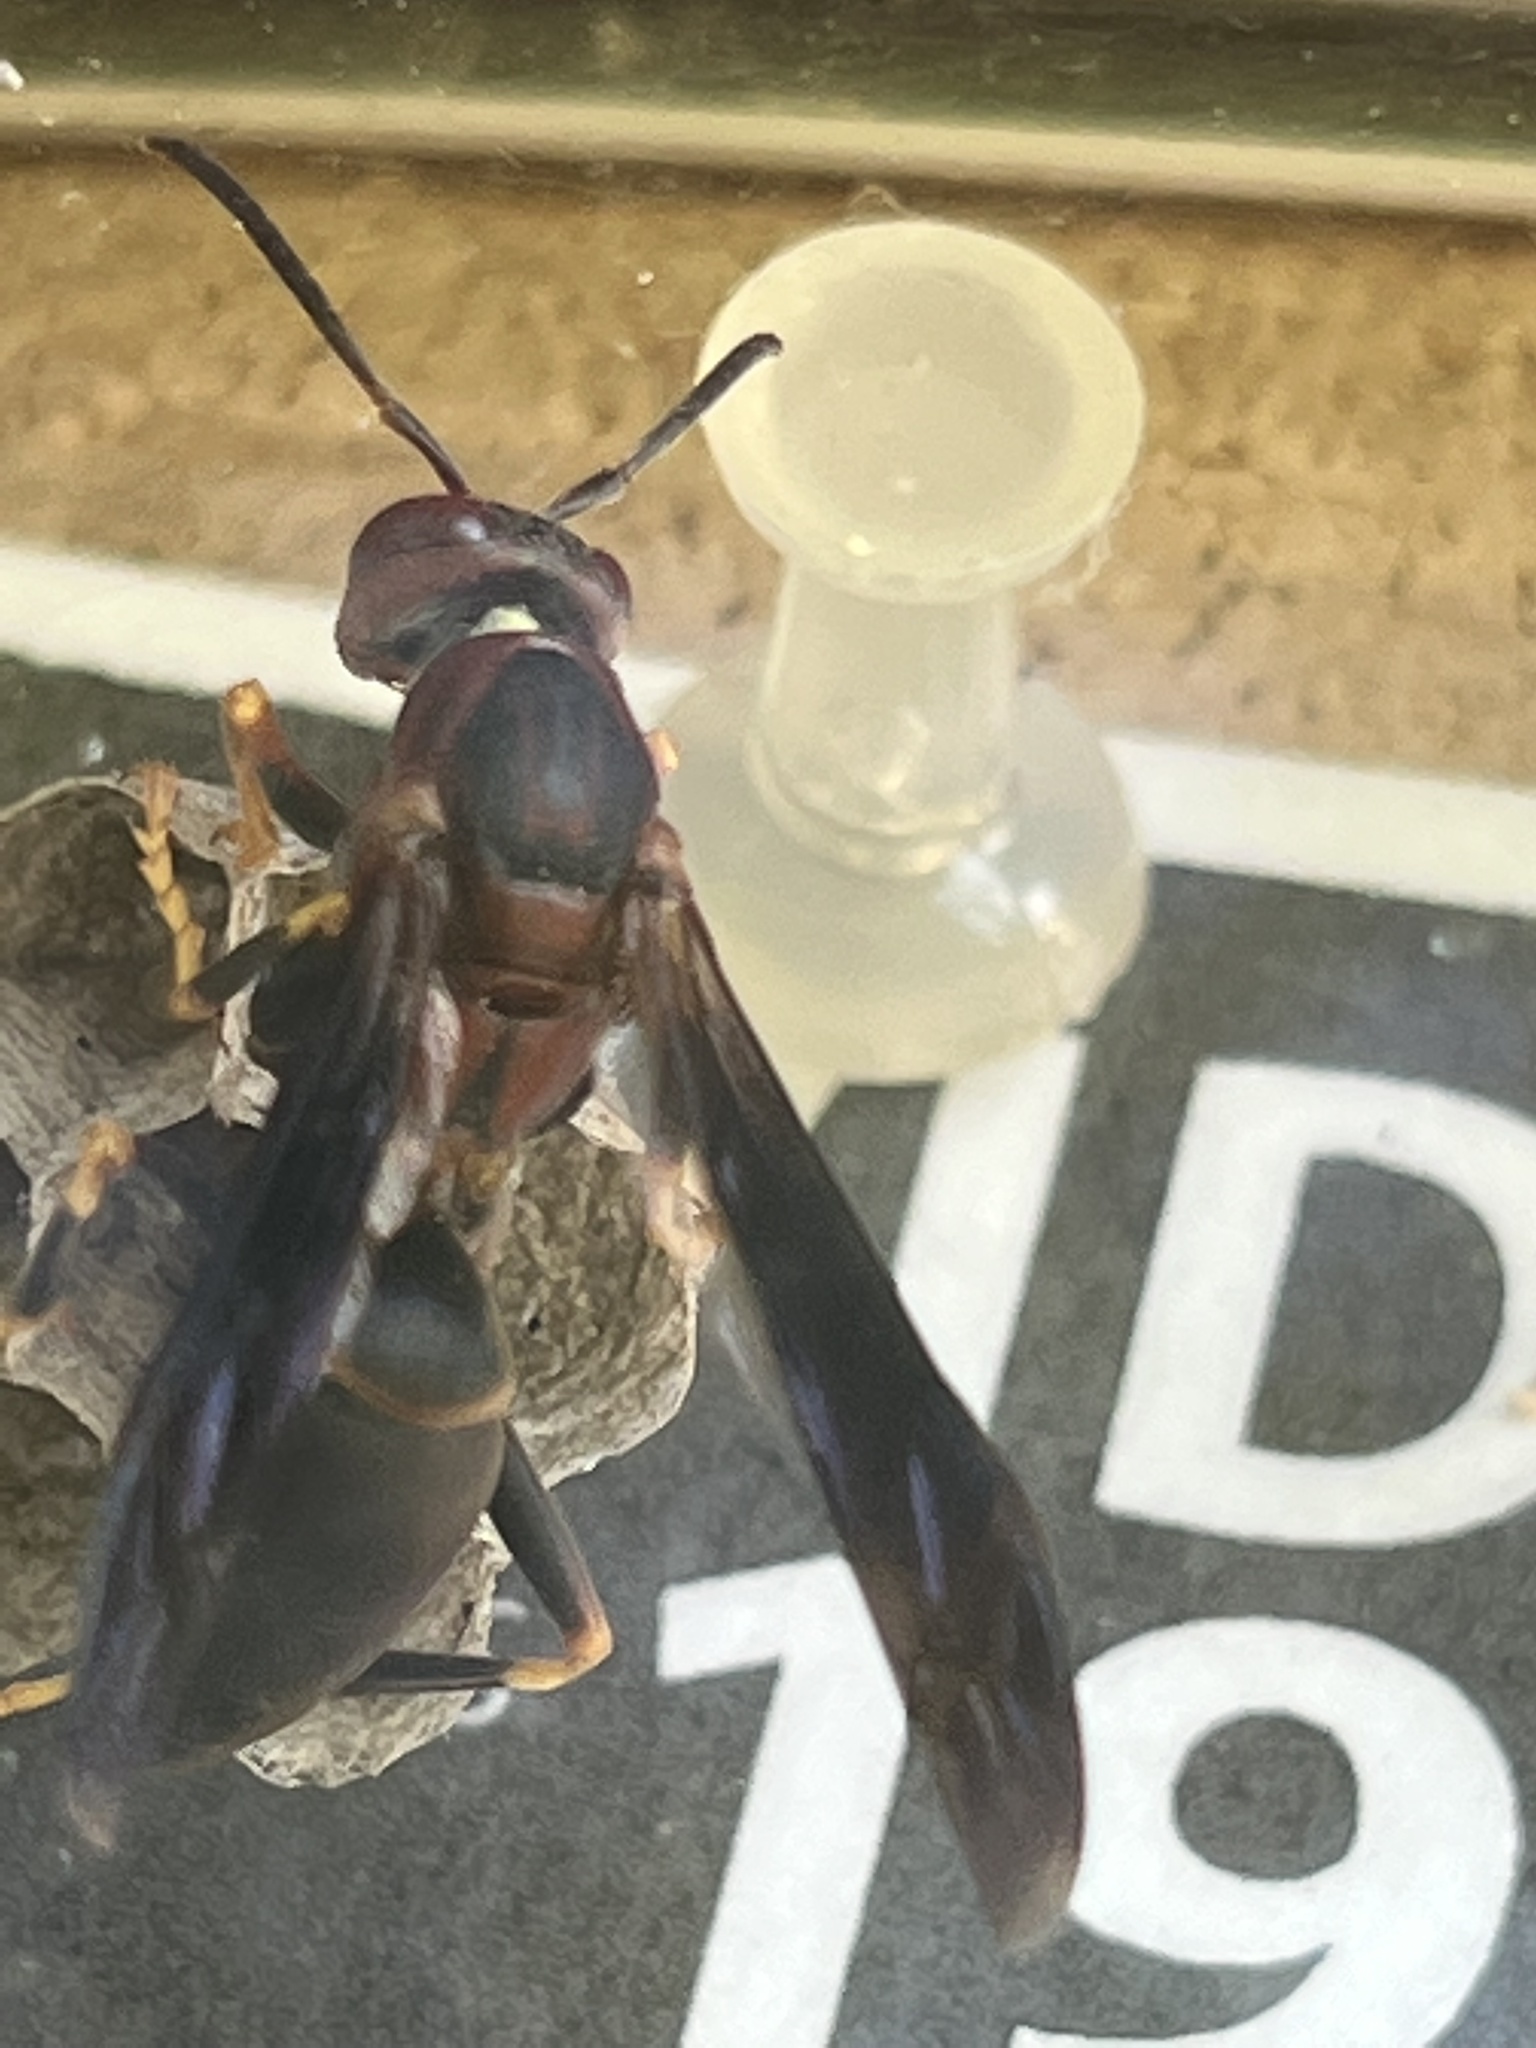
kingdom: Animalia
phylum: Arthropoda
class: Insecta
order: Hymenoptera
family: Eumenidae
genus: Polistes
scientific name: Polistes metricus
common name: Metric paper wasp
